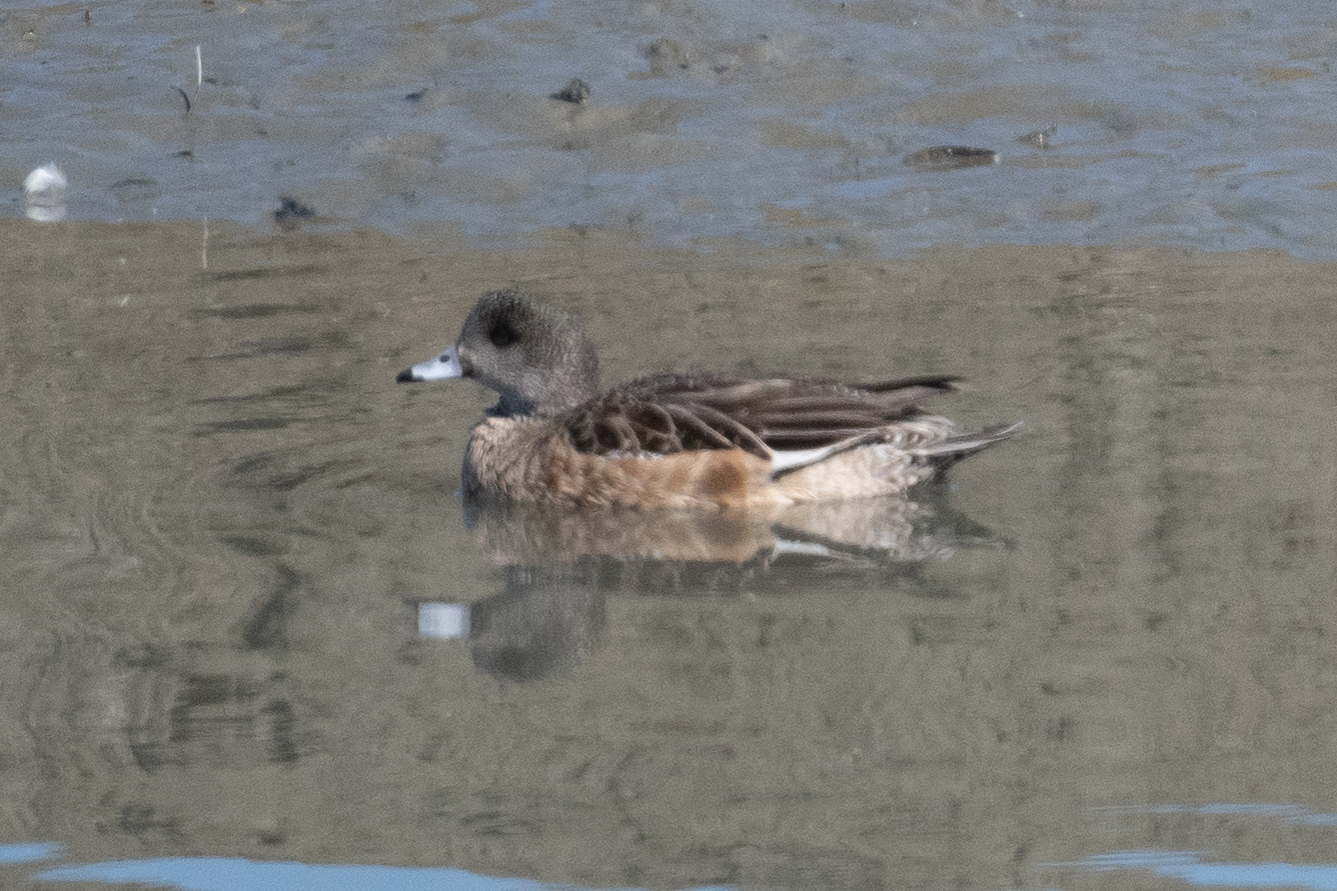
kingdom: Animalia
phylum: Chordata
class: Aves
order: Anseriformes
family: Anatidae
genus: Mareca
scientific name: Mareca americana
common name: American wigeon
